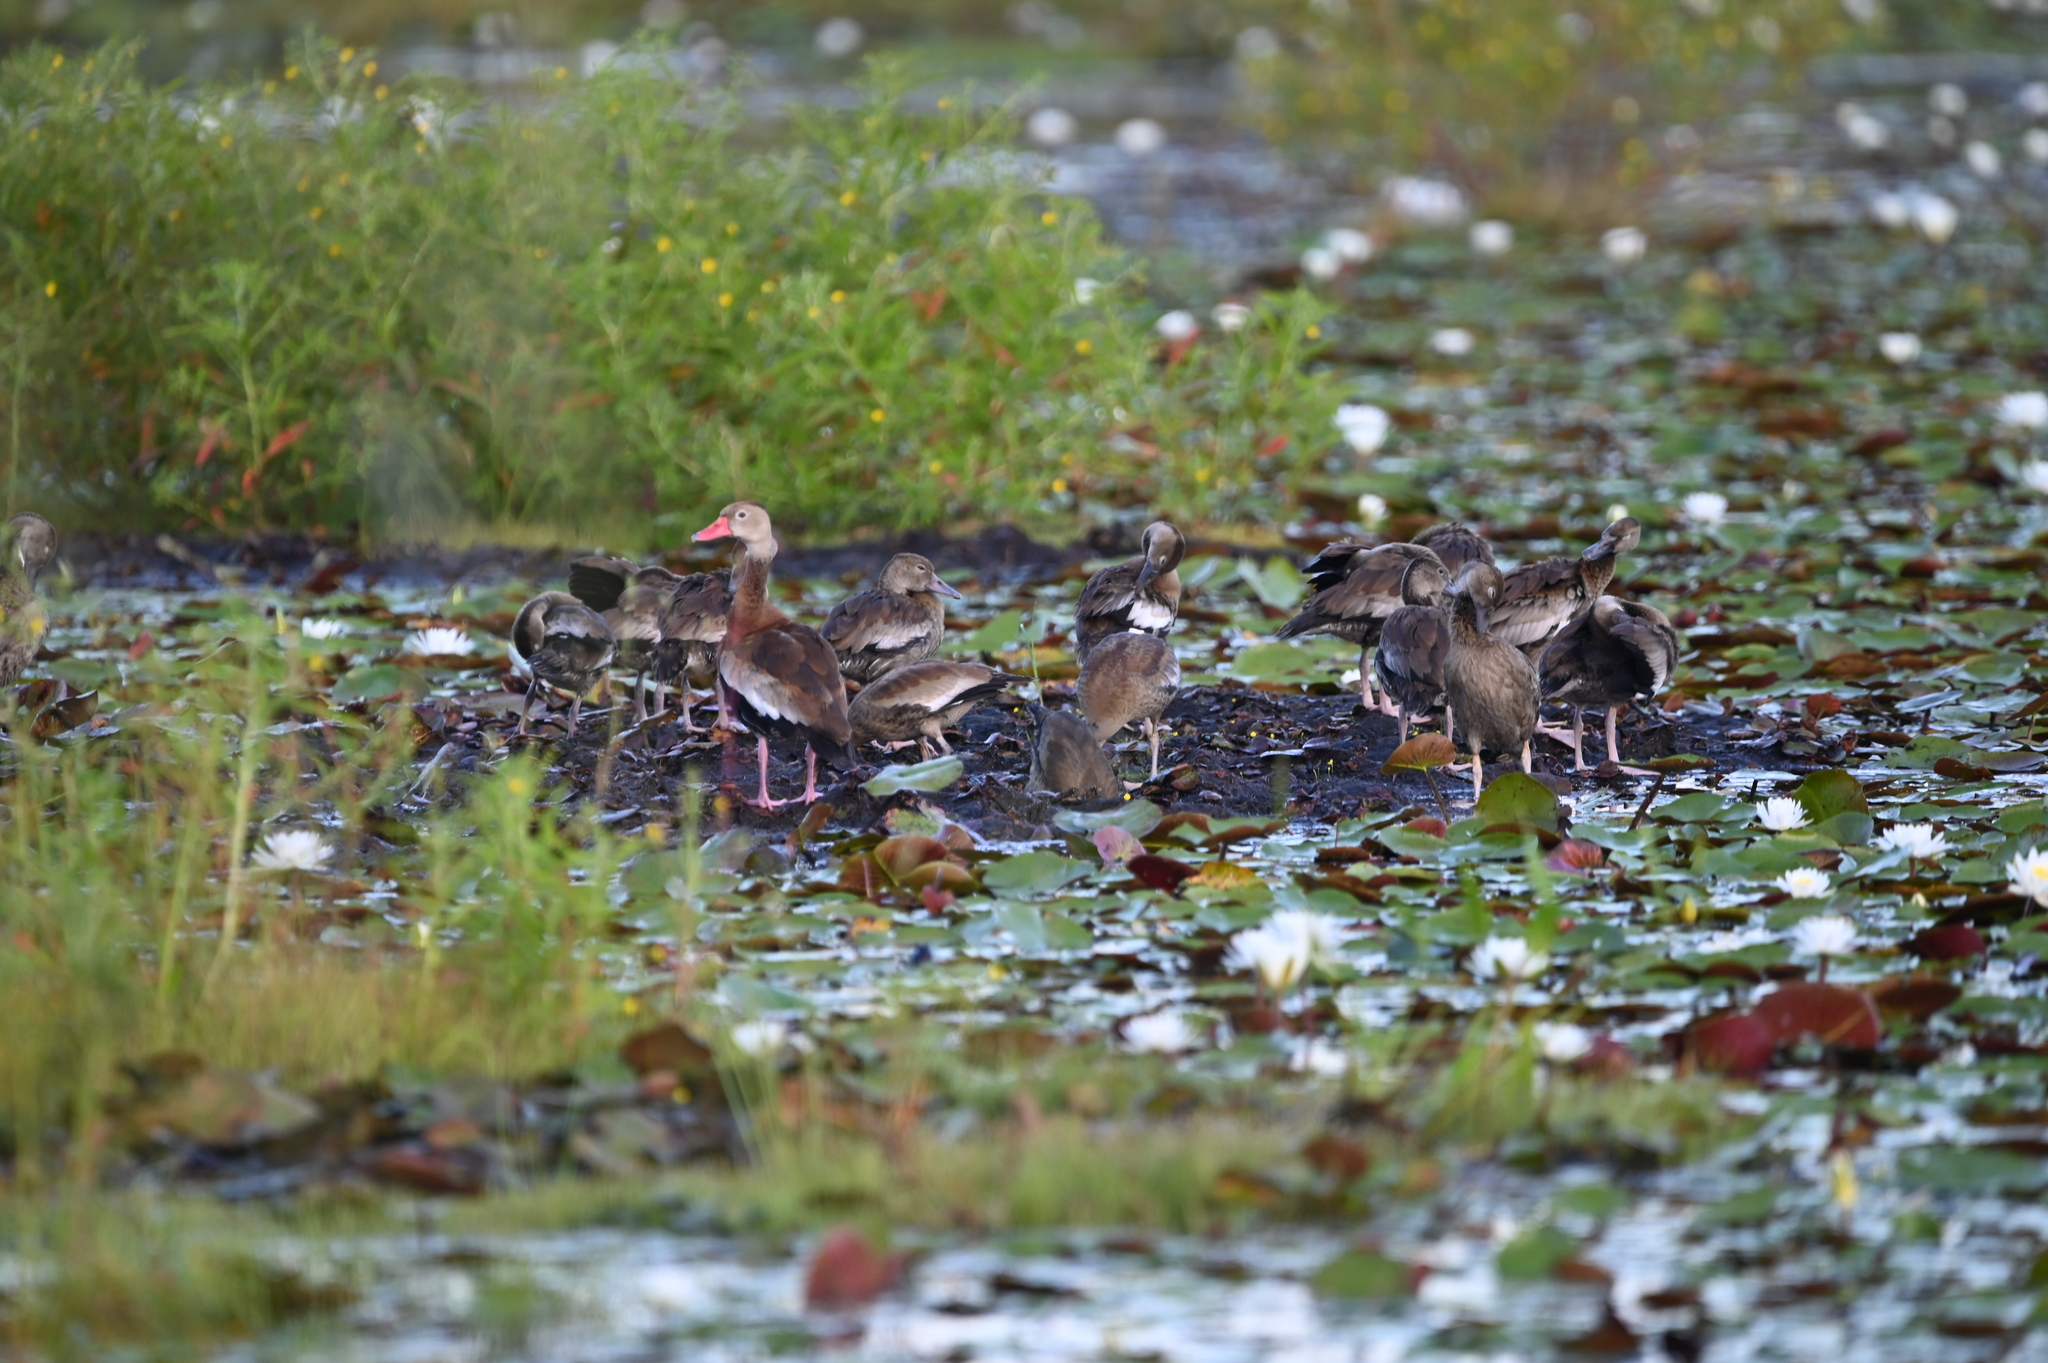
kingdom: Animalia
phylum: Chordata
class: Aves
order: Anseriformes
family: Anatidae
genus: Dendrocygna
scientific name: Dendrocygna autumnalis
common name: Black-bellied whistling duck
